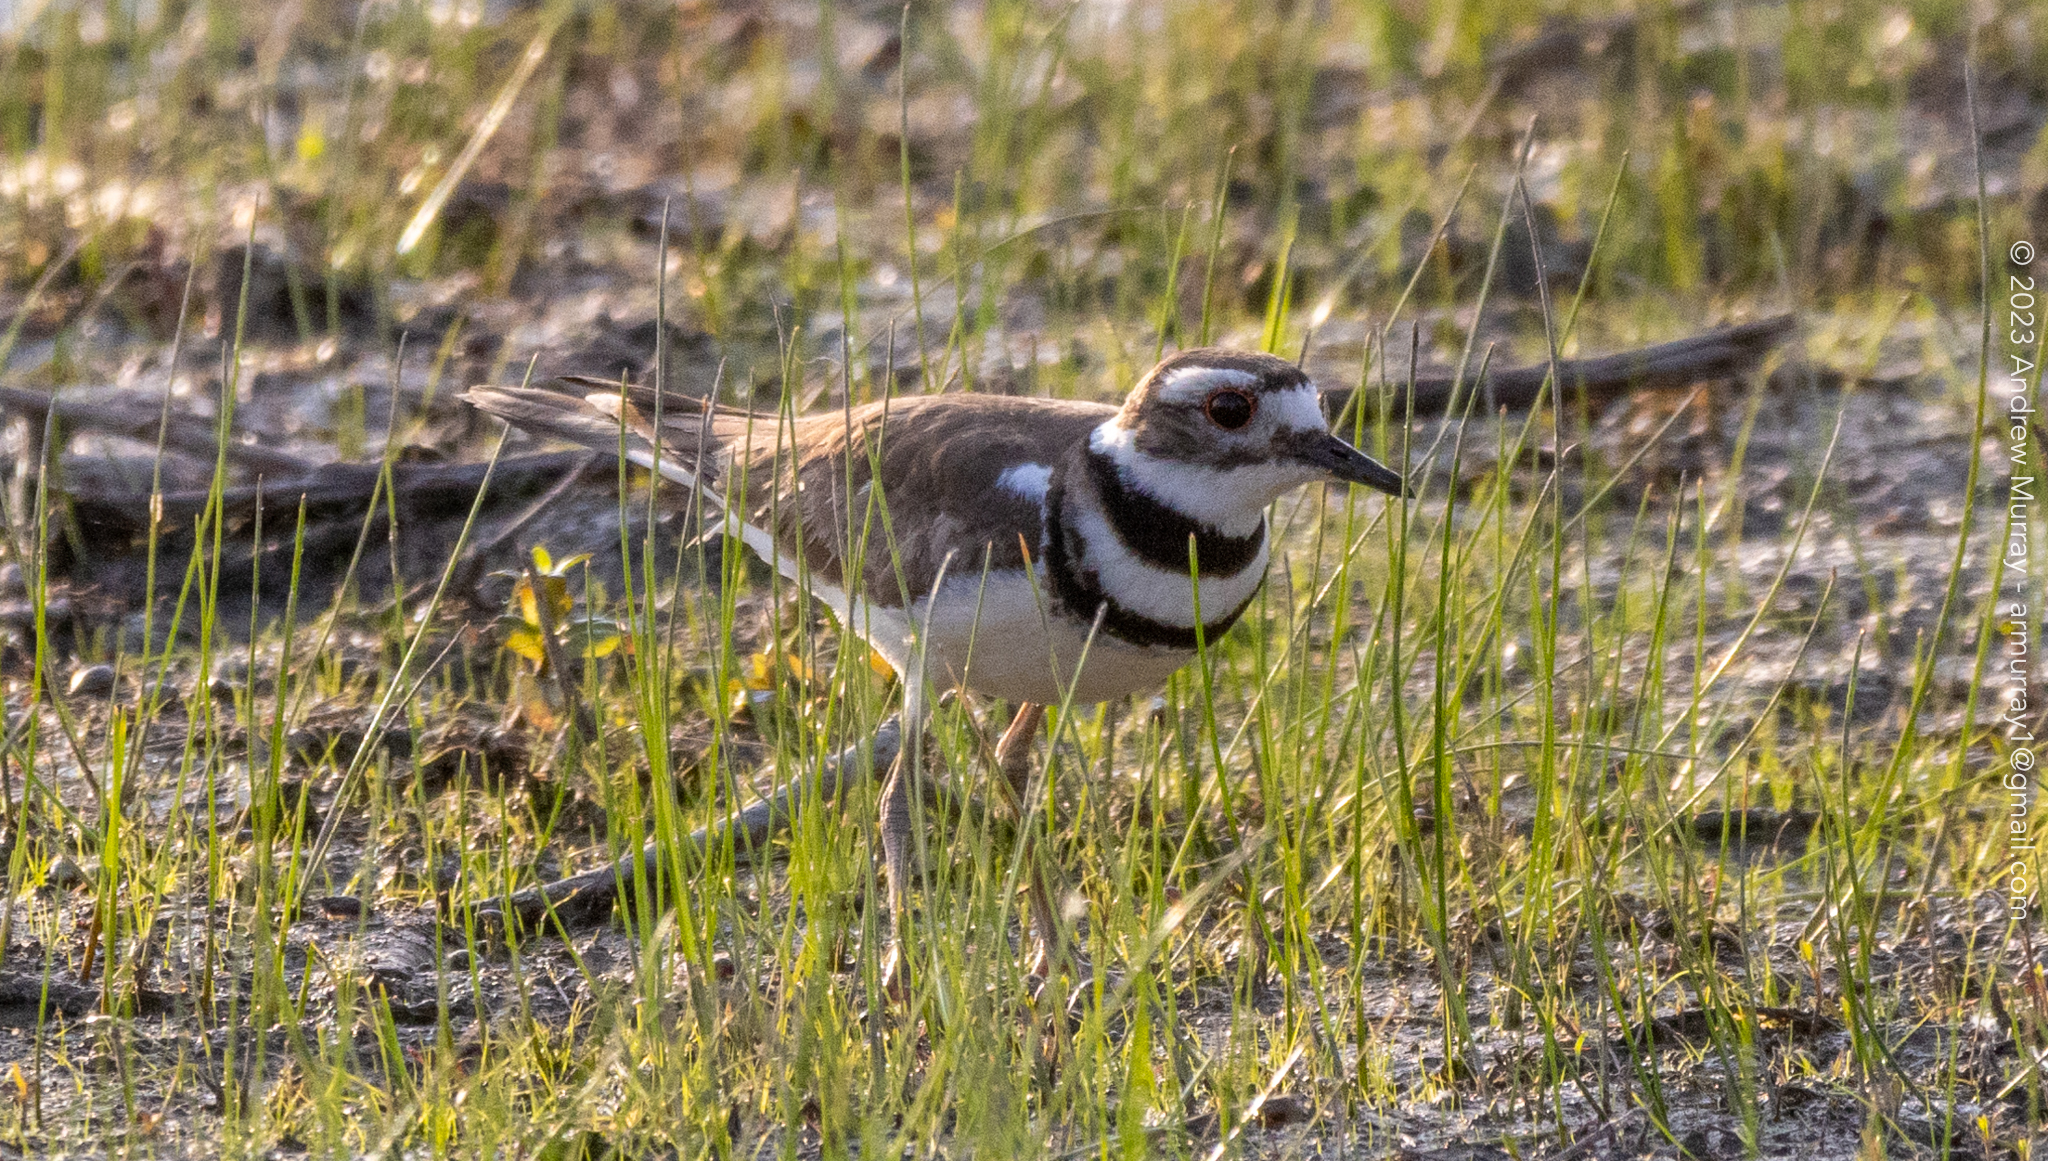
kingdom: Animalia
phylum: Chordata
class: Aves
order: Charadriiformes
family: Charadriidae
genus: Charadrius
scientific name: Charadrius vociferus
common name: Killdeer
